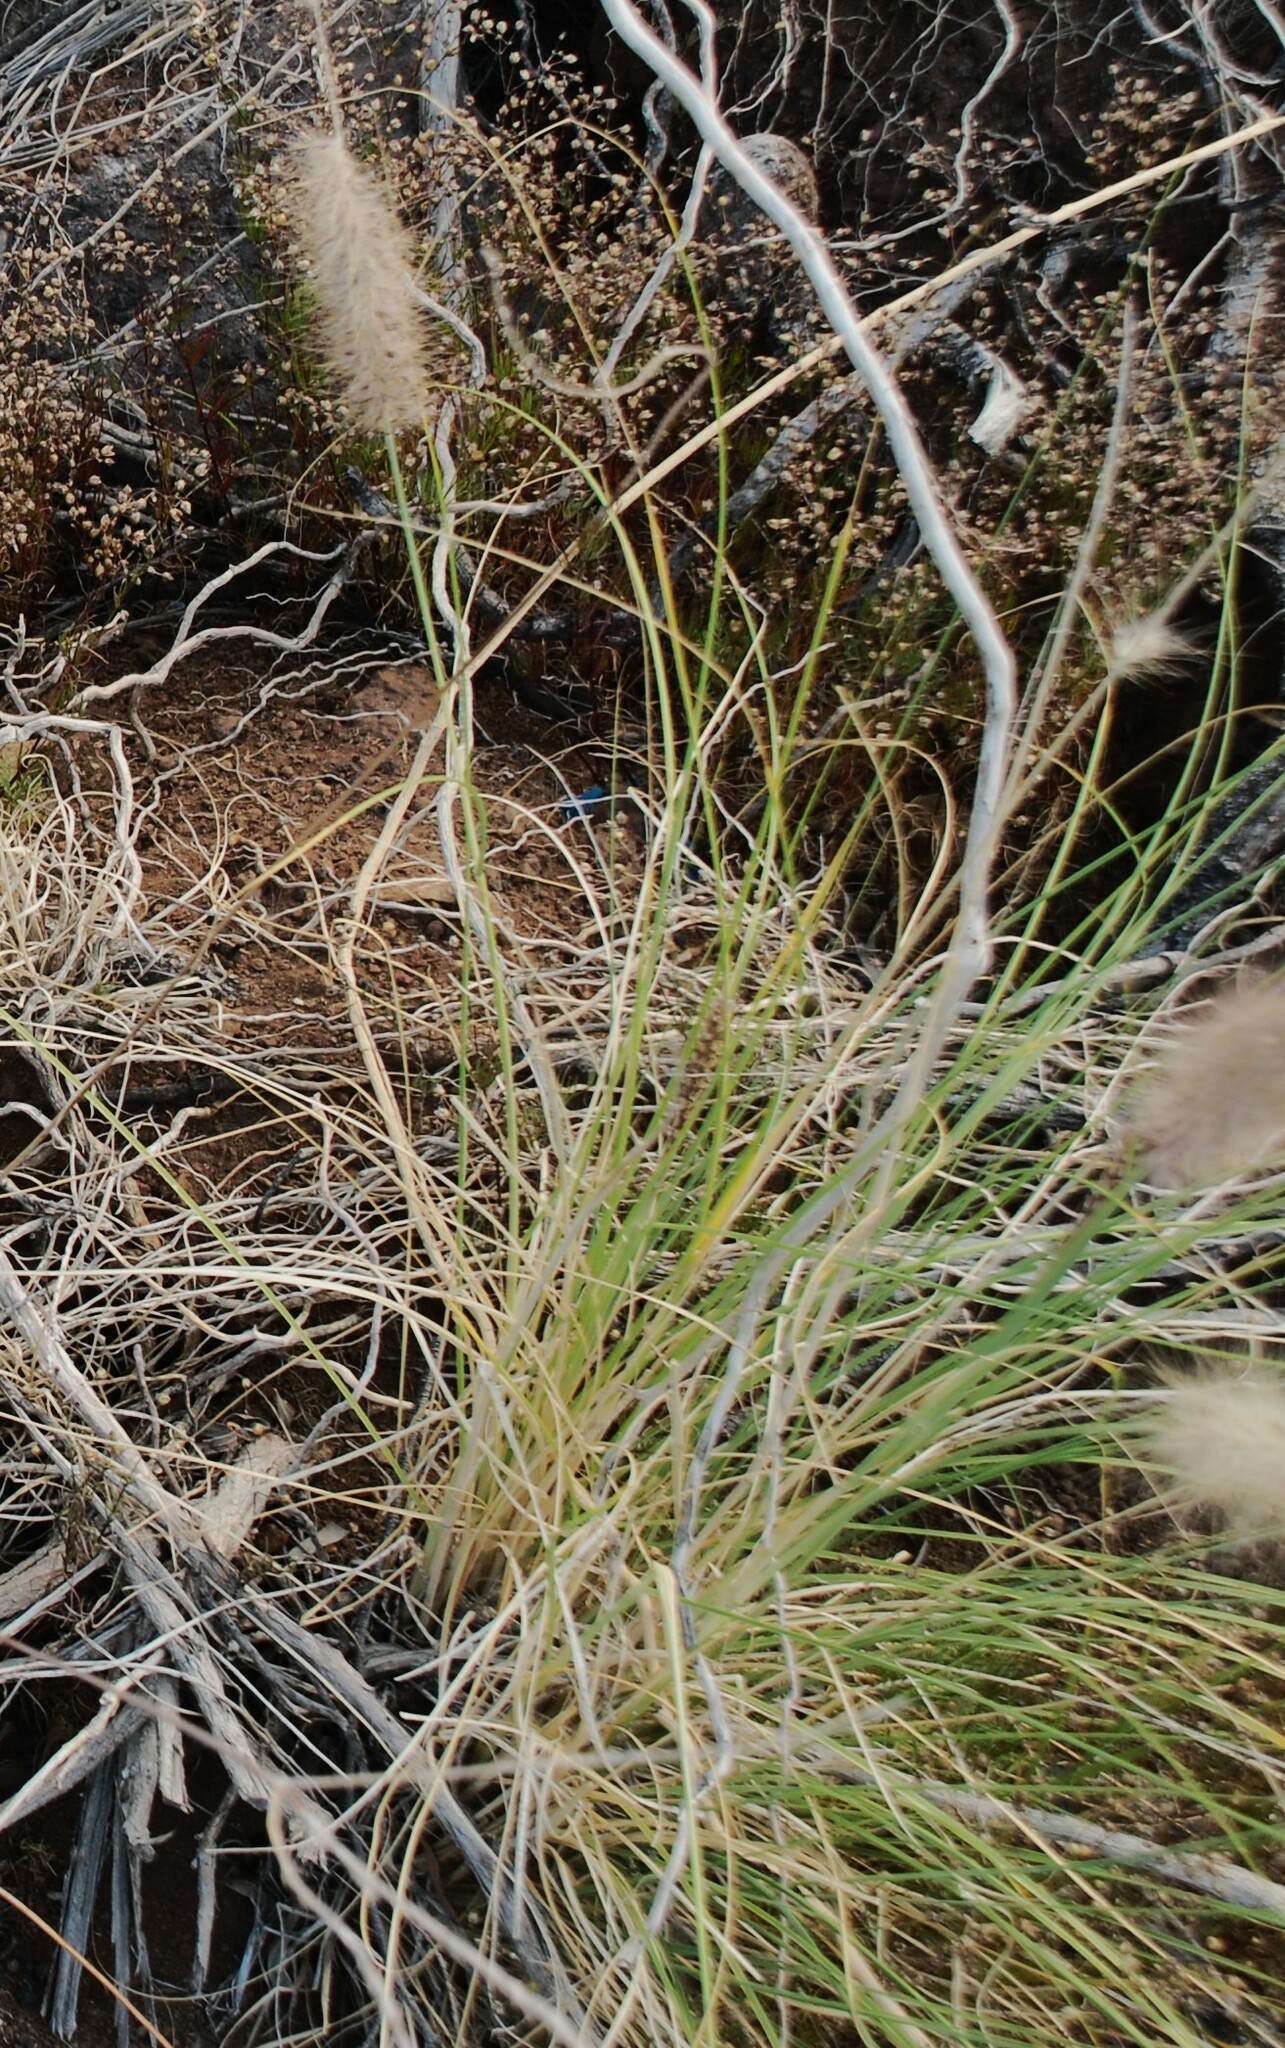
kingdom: Plantae
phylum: Tracheophyta
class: Liliopsida
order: Poales
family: Poaceae
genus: Cenchrus
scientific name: Cenchrus setaceus
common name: Crimson fountaingrass
